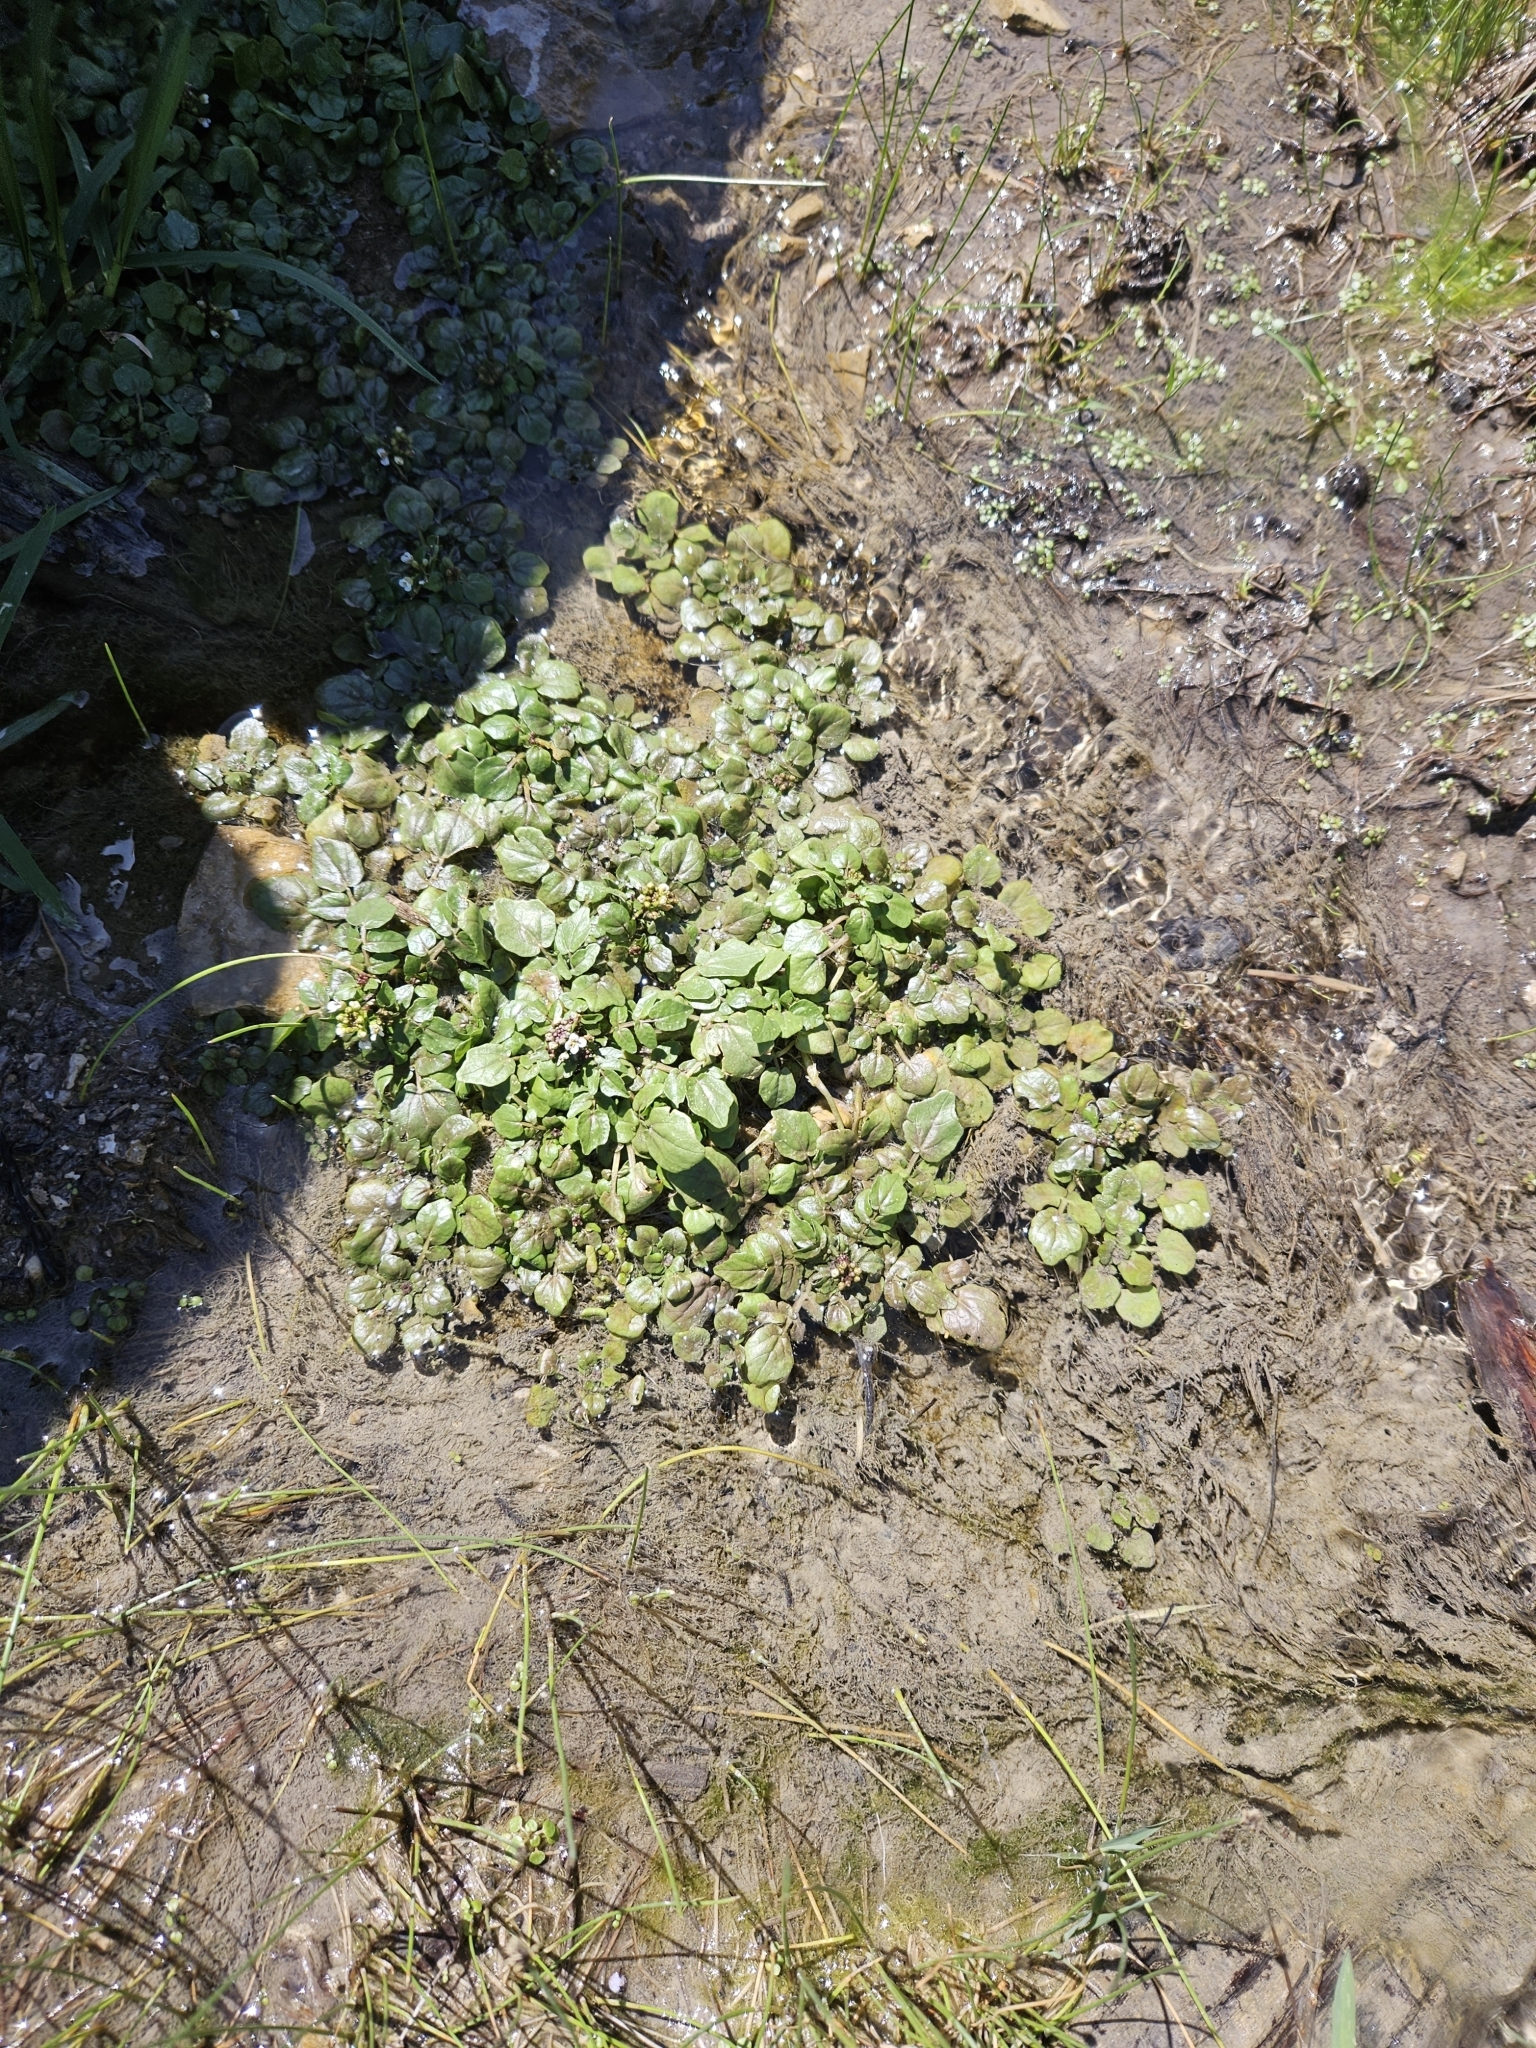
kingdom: Plantae
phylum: Tracheophyta
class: Magnoliopsida
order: Brassicales
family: Brassicaceae
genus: Nasturtium
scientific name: Nasturtium officinale
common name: Watercress
